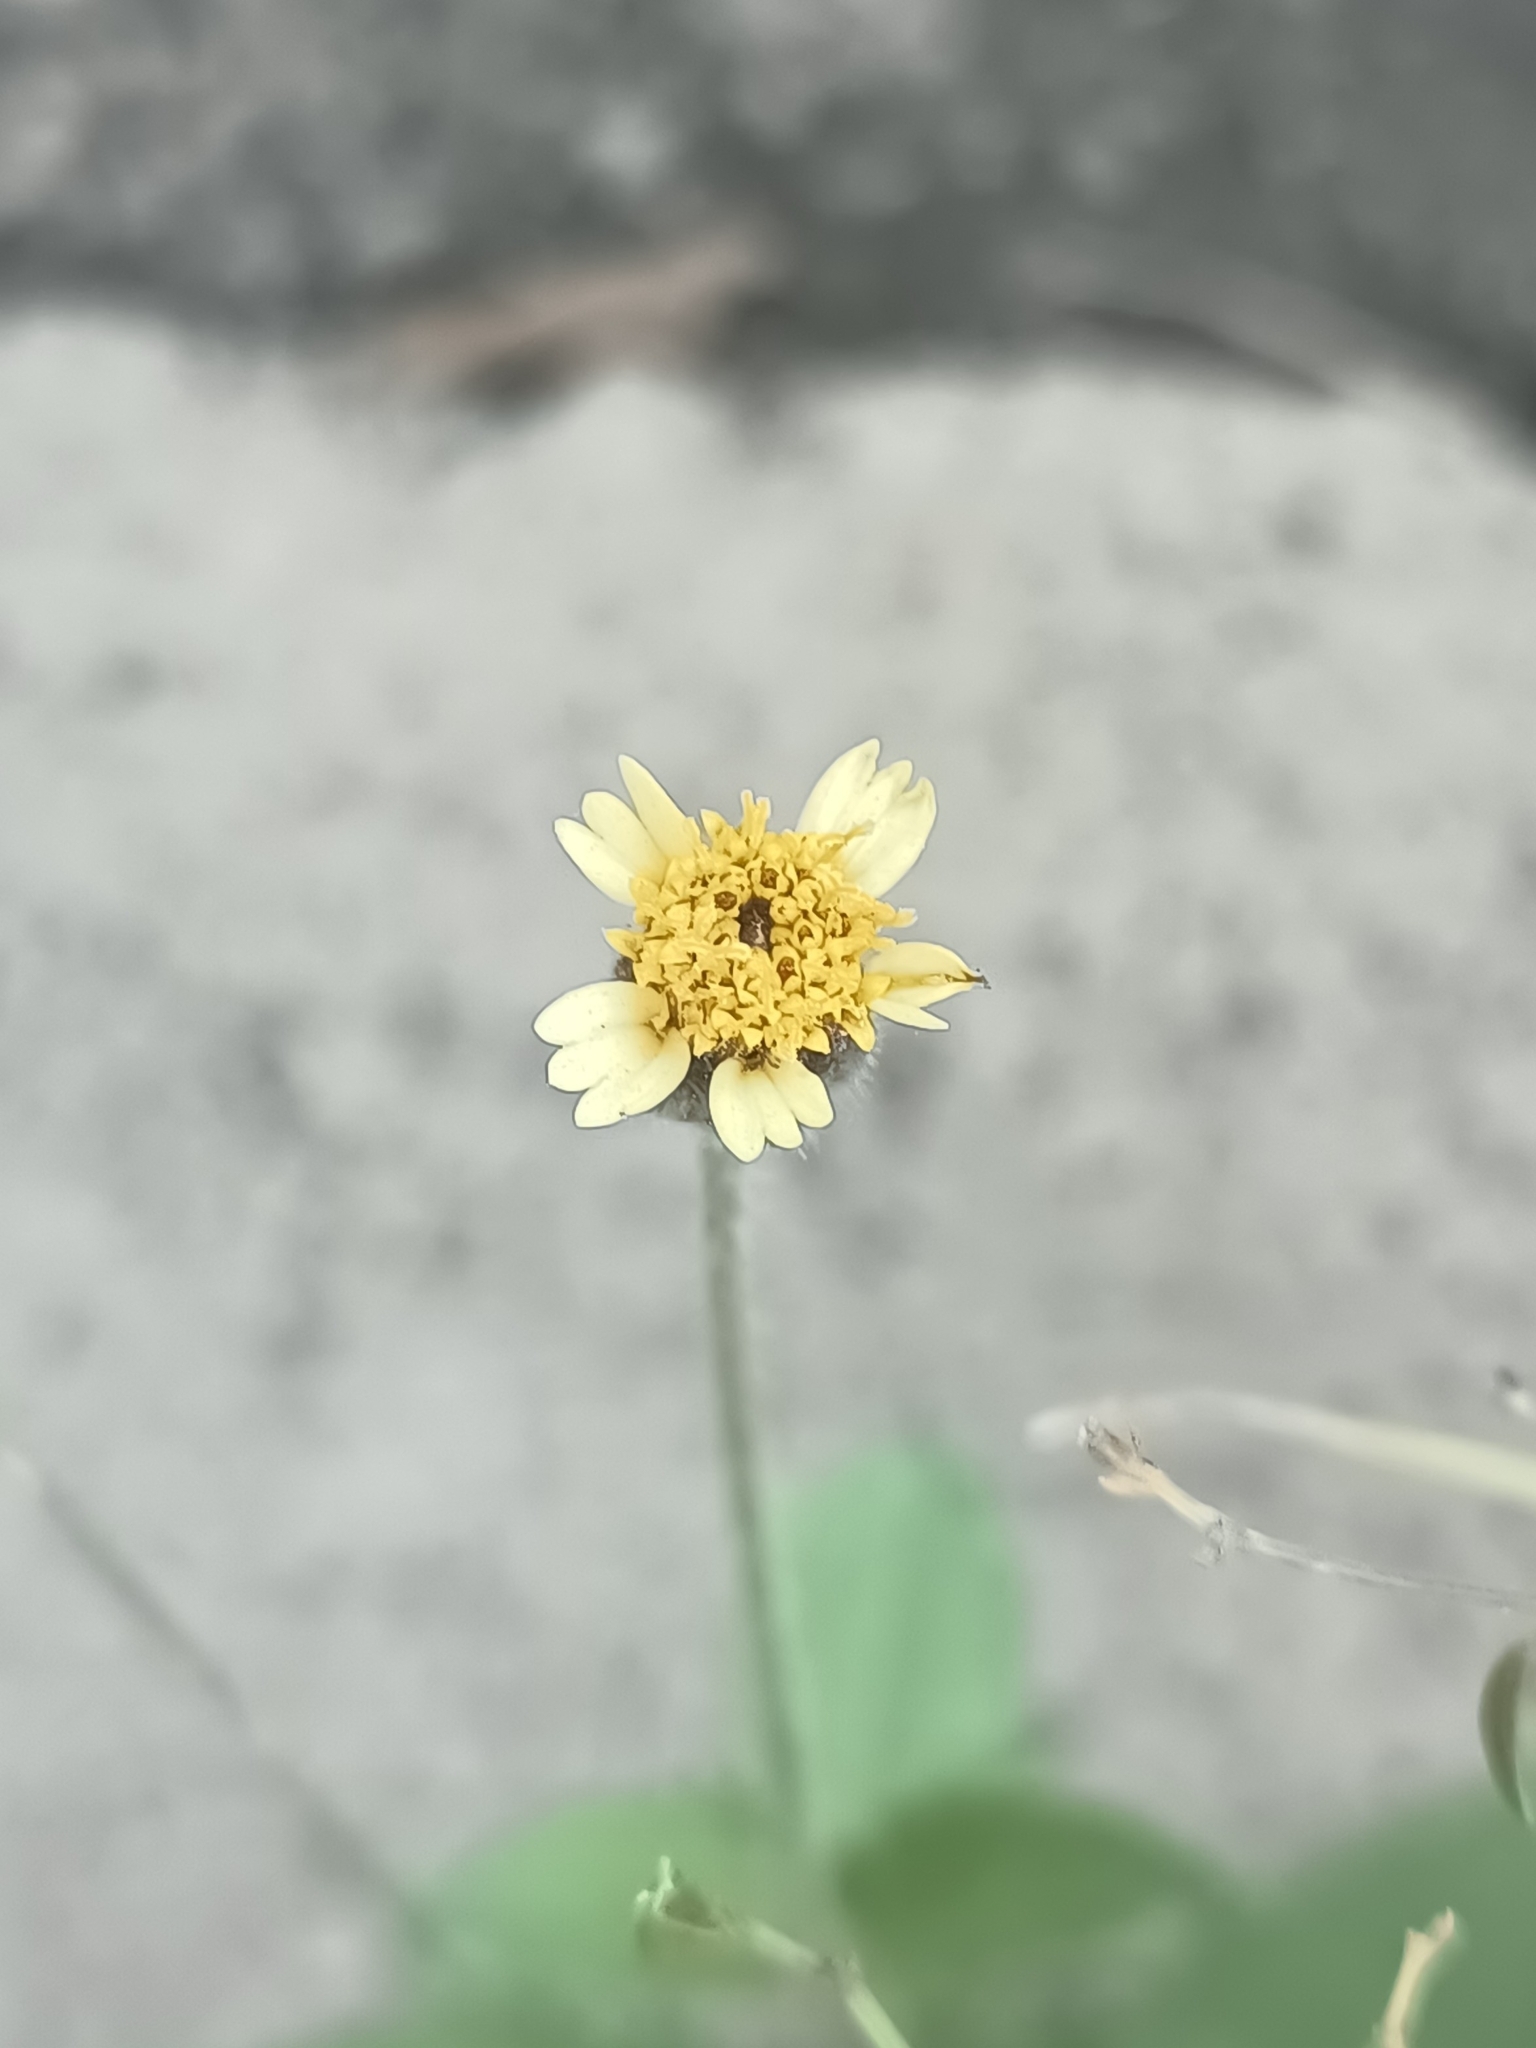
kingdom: Plantae
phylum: Tracheophyta
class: Magnoliopsida
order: Asterales
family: Asteraceae
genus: Tridax
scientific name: Tridax procumbens
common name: Coatbuttons
